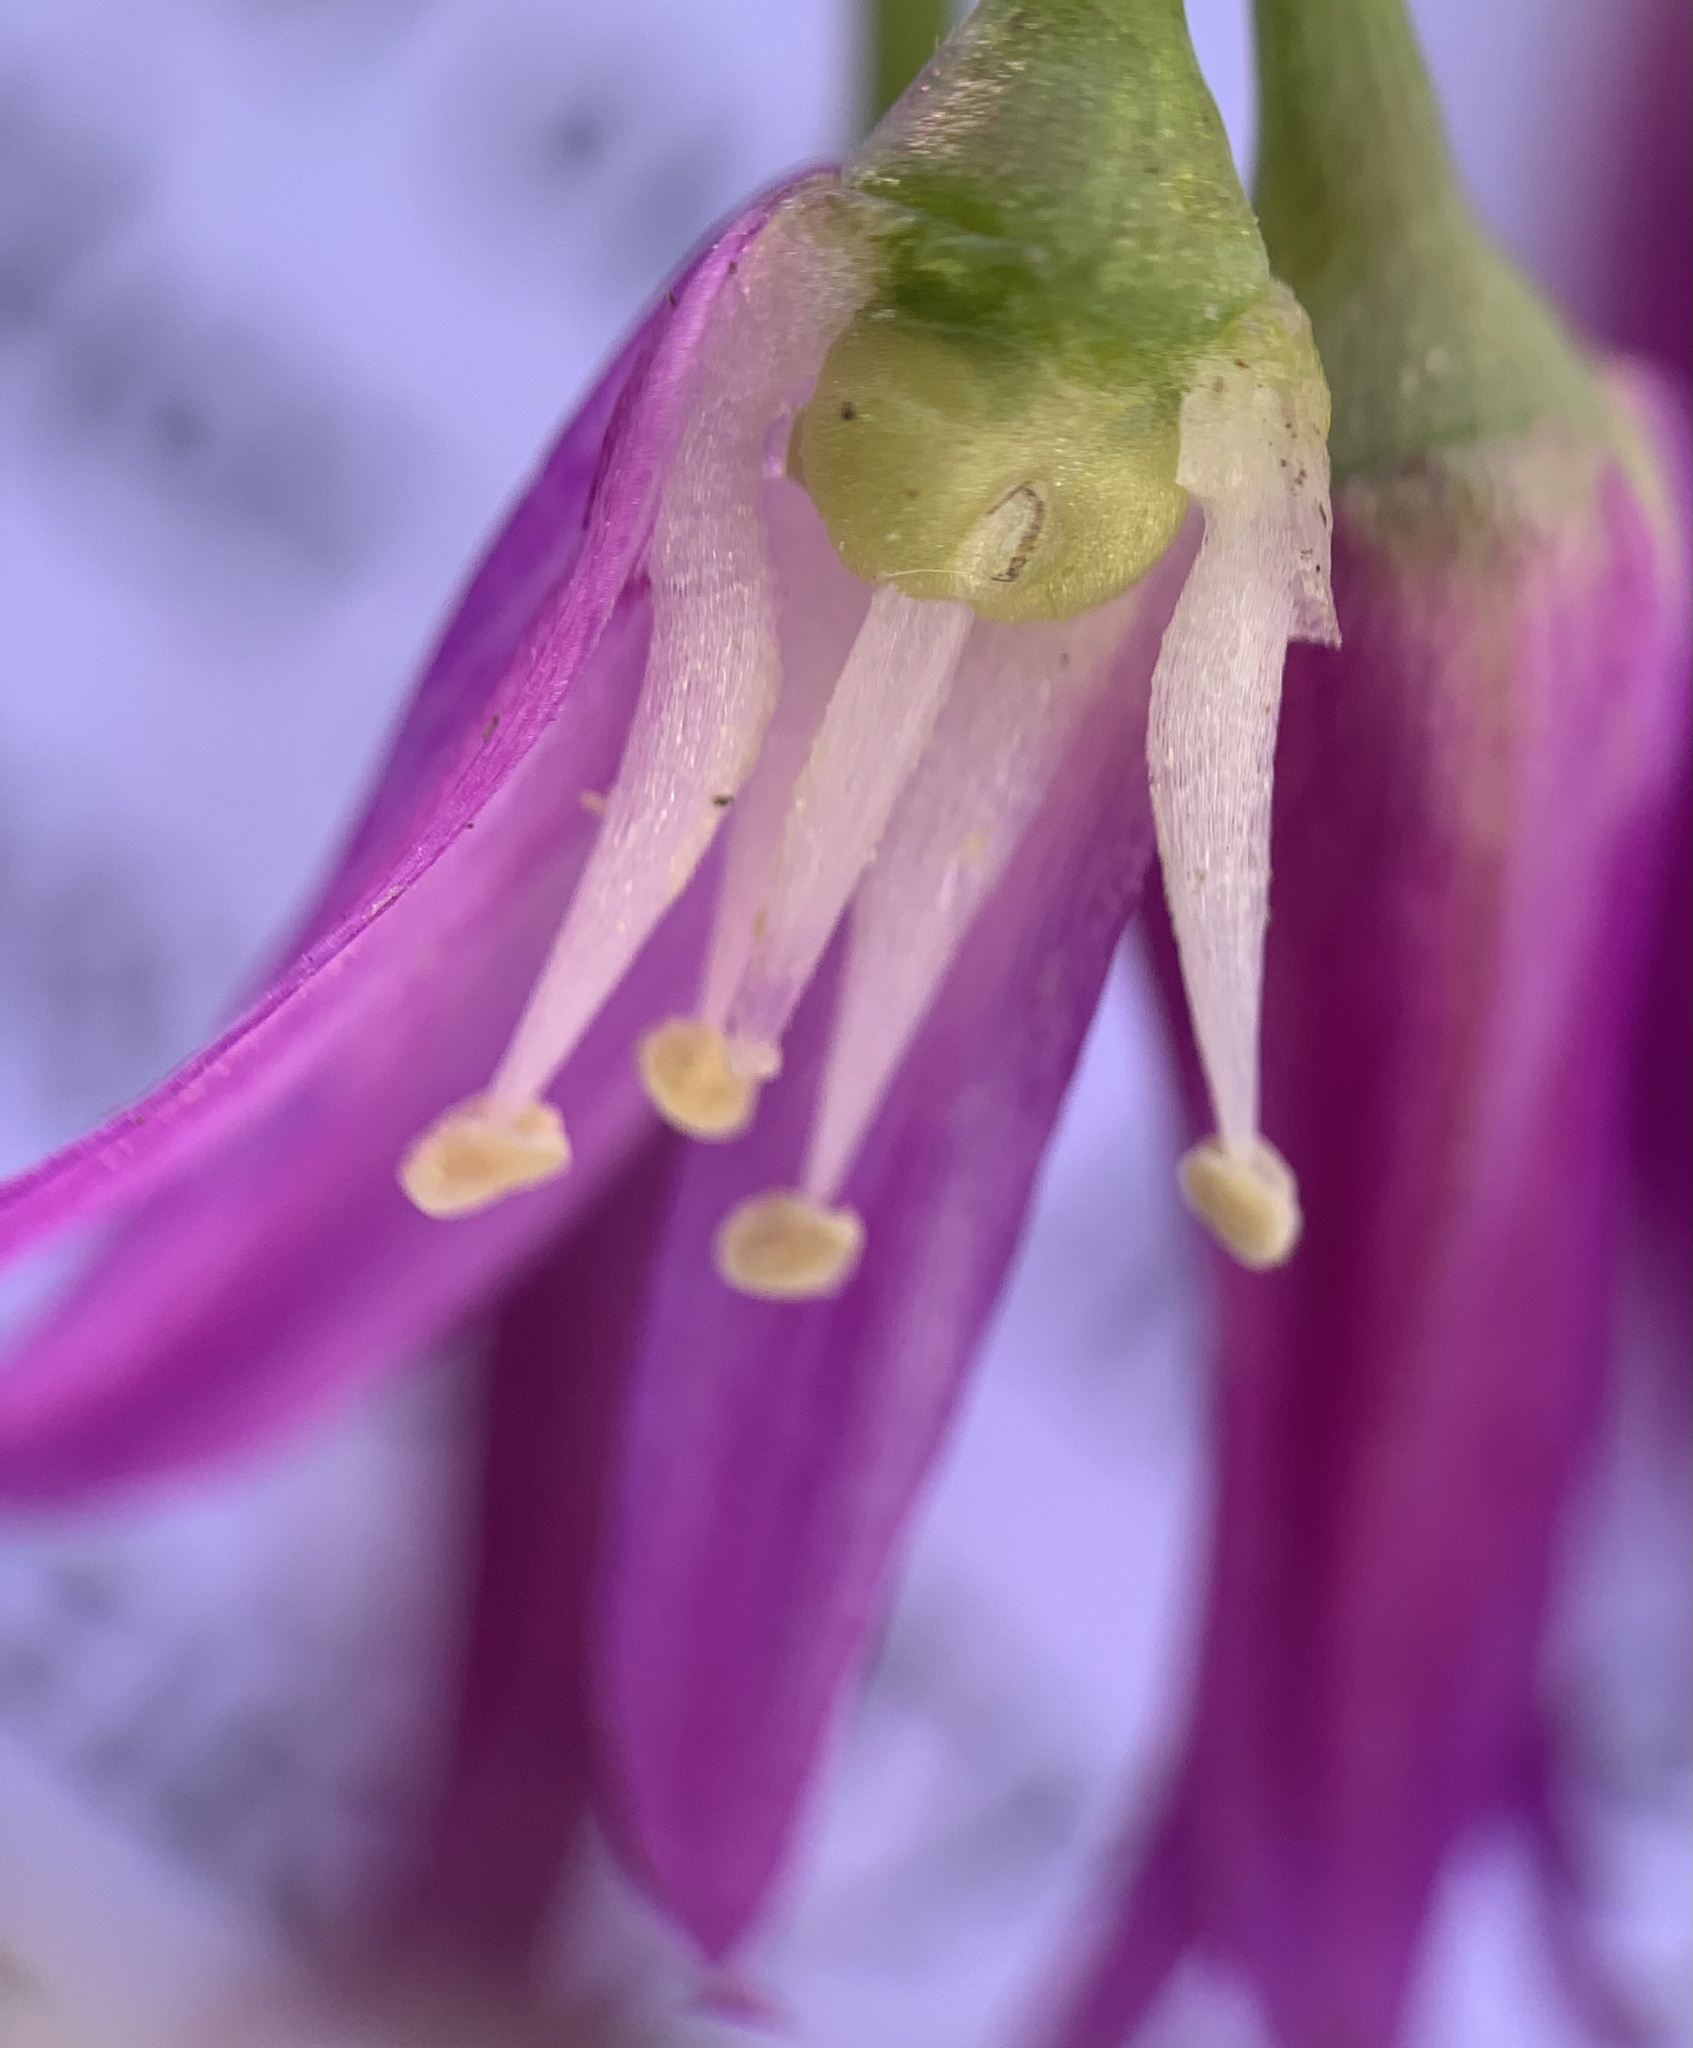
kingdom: Plantae
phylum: Tracheophyta
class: Liliopsida
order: Asparagales
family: Amaryllidaceae
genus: Allium
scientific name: Allium brevistylum
